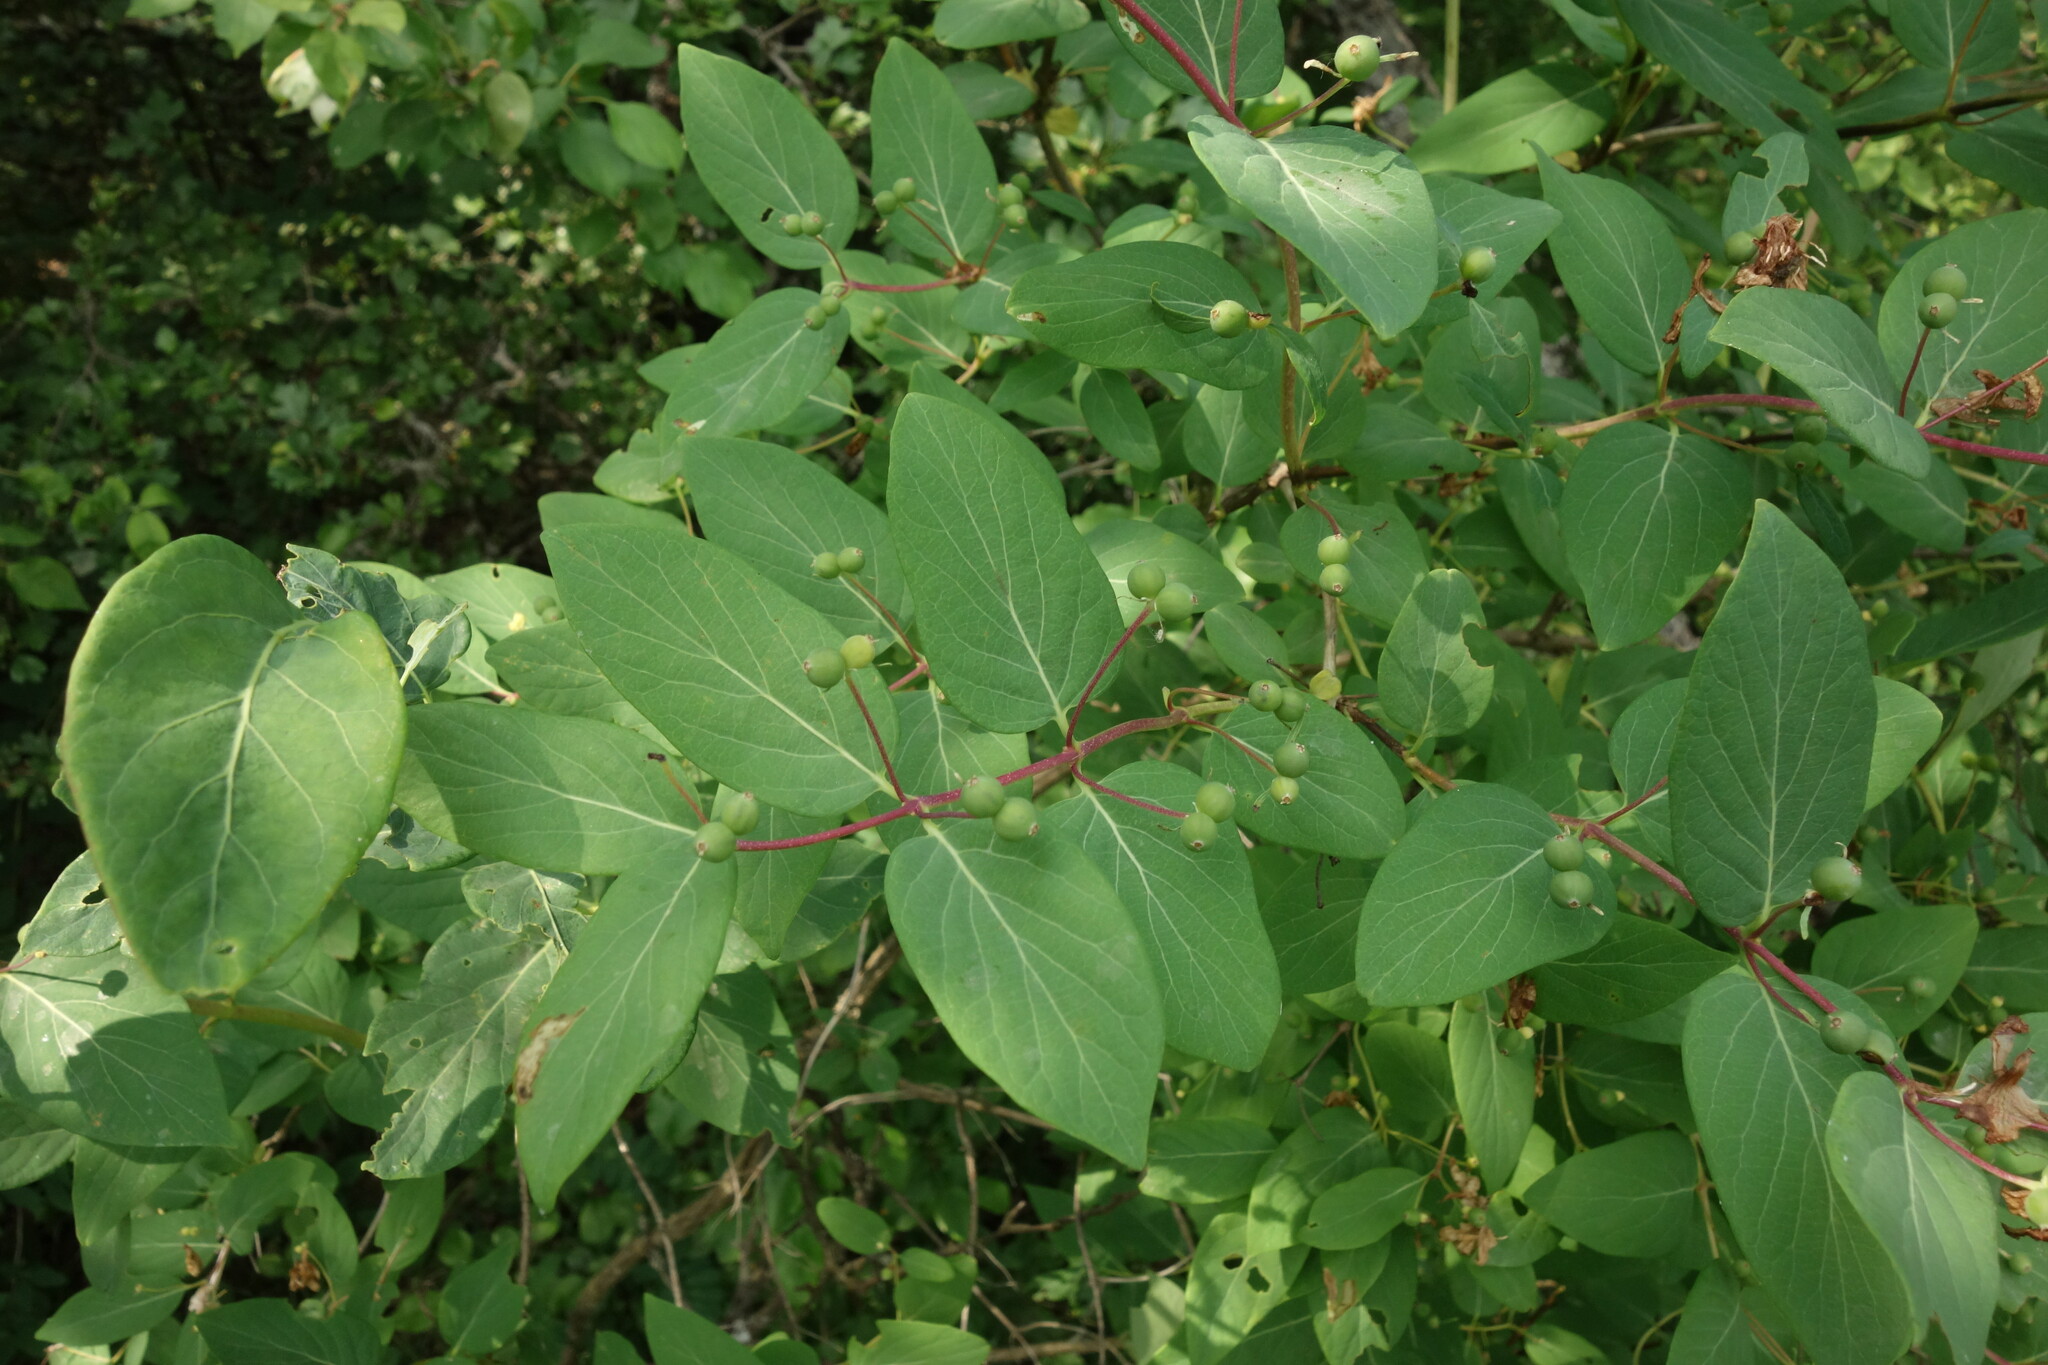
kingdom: Plantae
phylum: Tracheophyta
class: Magnoliopsida
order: Dipsacales
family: Caprifoliaceae
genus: Lonicera
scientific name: Lonicera tatarica
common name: Tatarian honeysuckle
